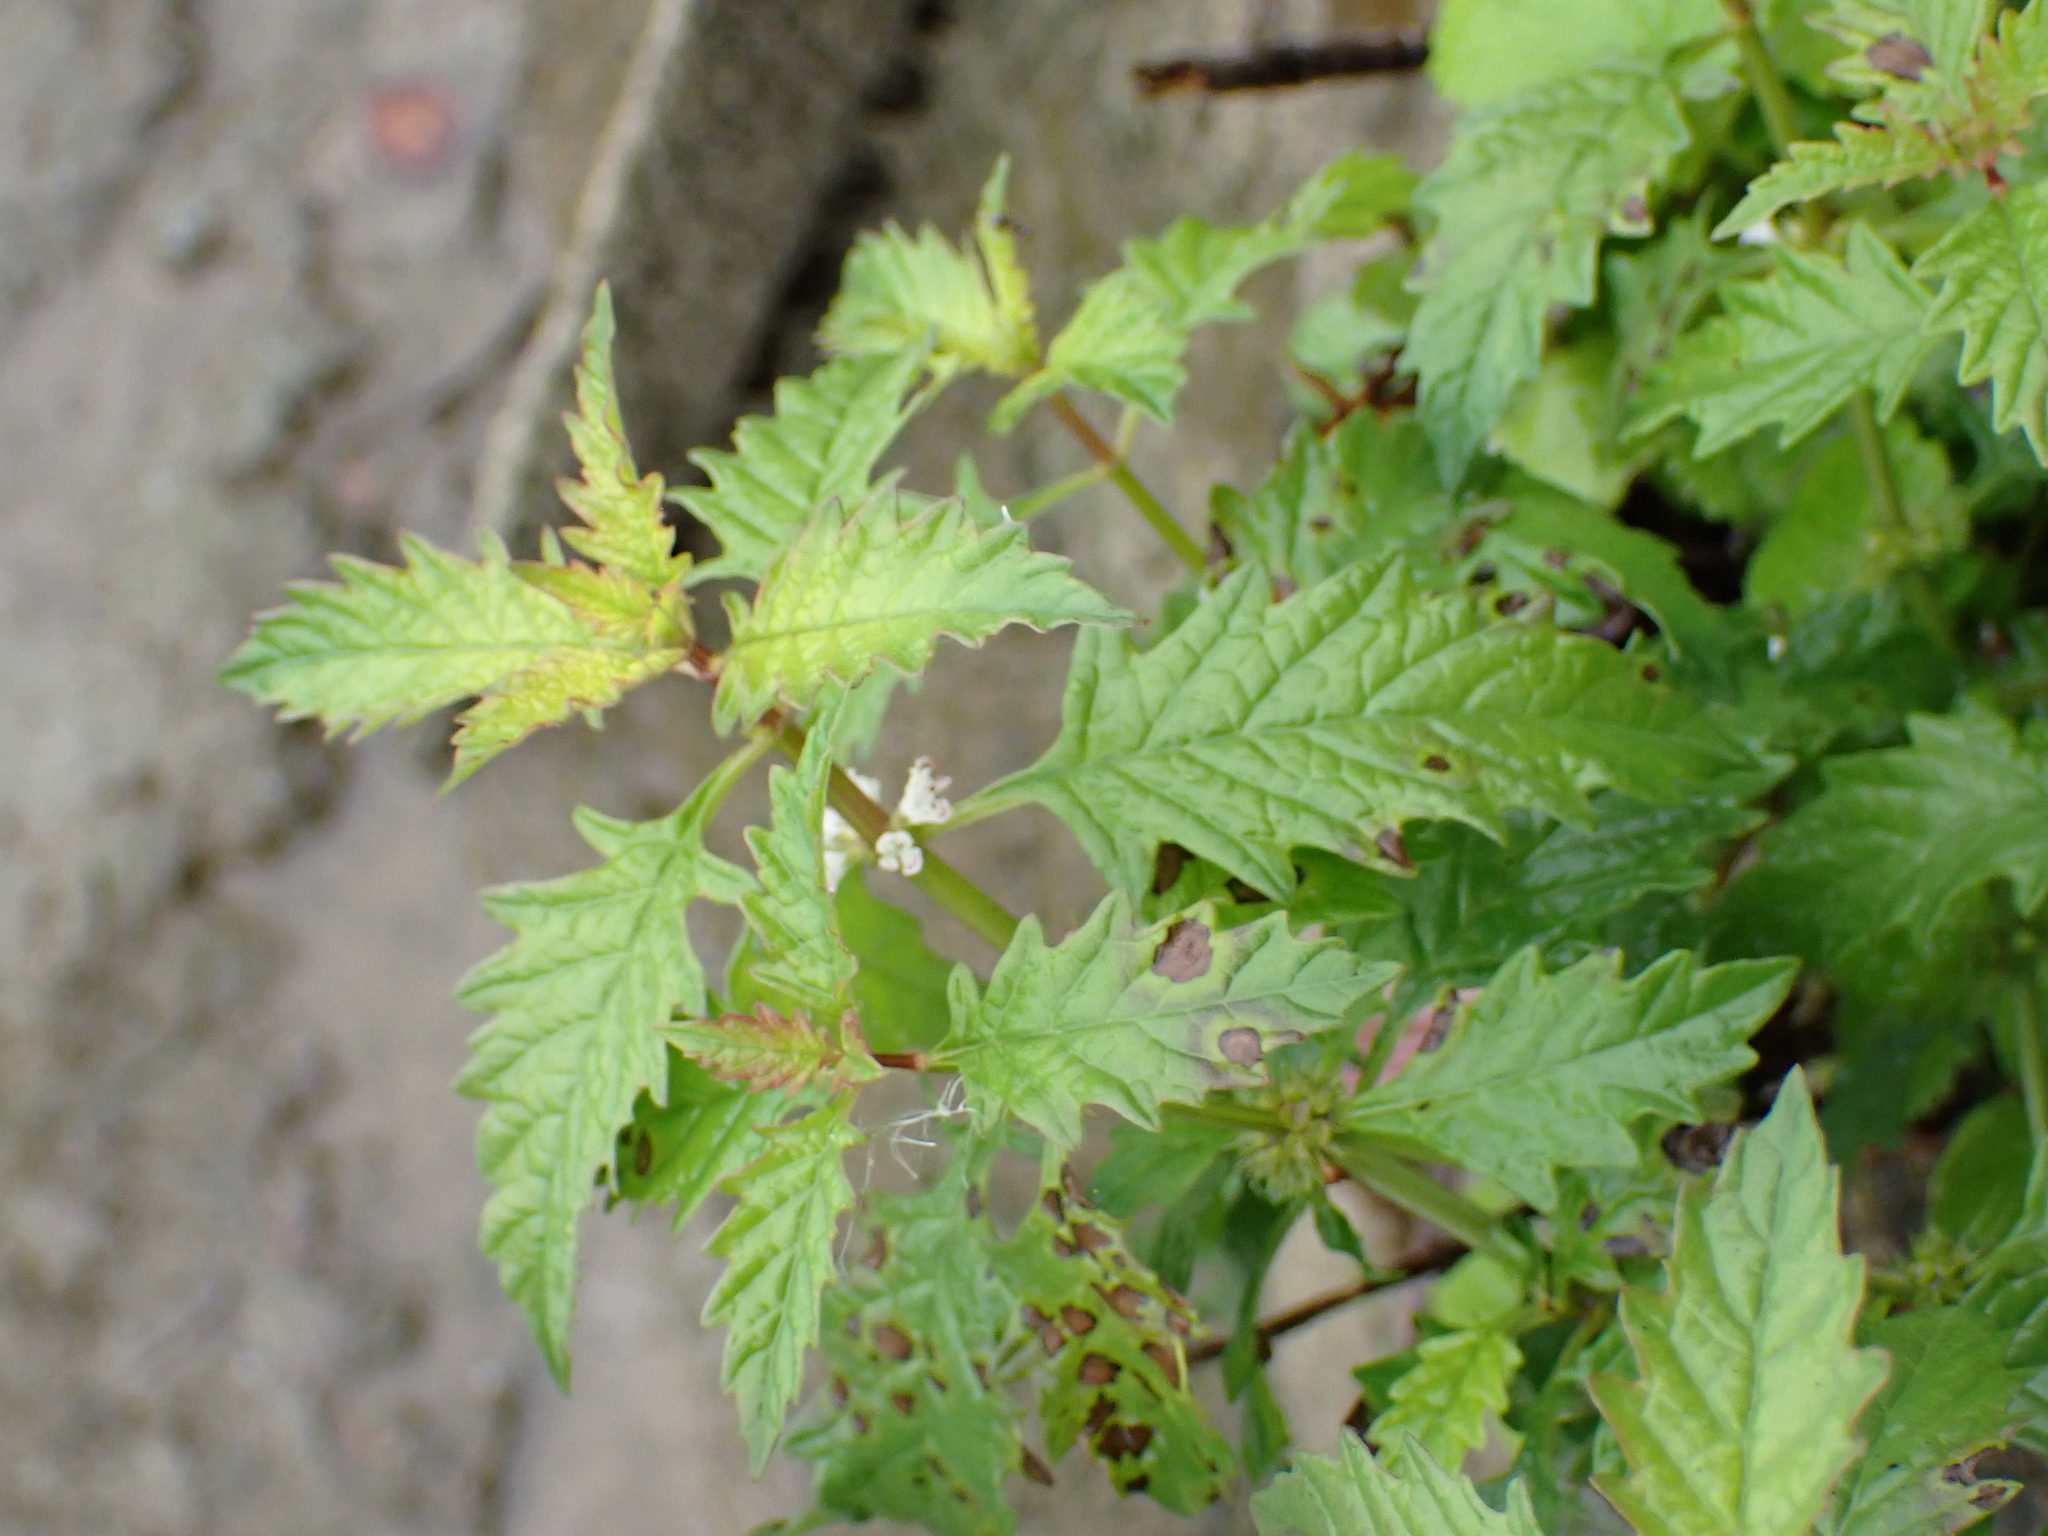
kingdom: Plantae
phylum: Tracheophyta
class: Magnoliopsida
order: Lamiales
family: Lamiaceae
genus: Lycopus
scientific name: Lycopus europaeus
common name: European bugleweed
